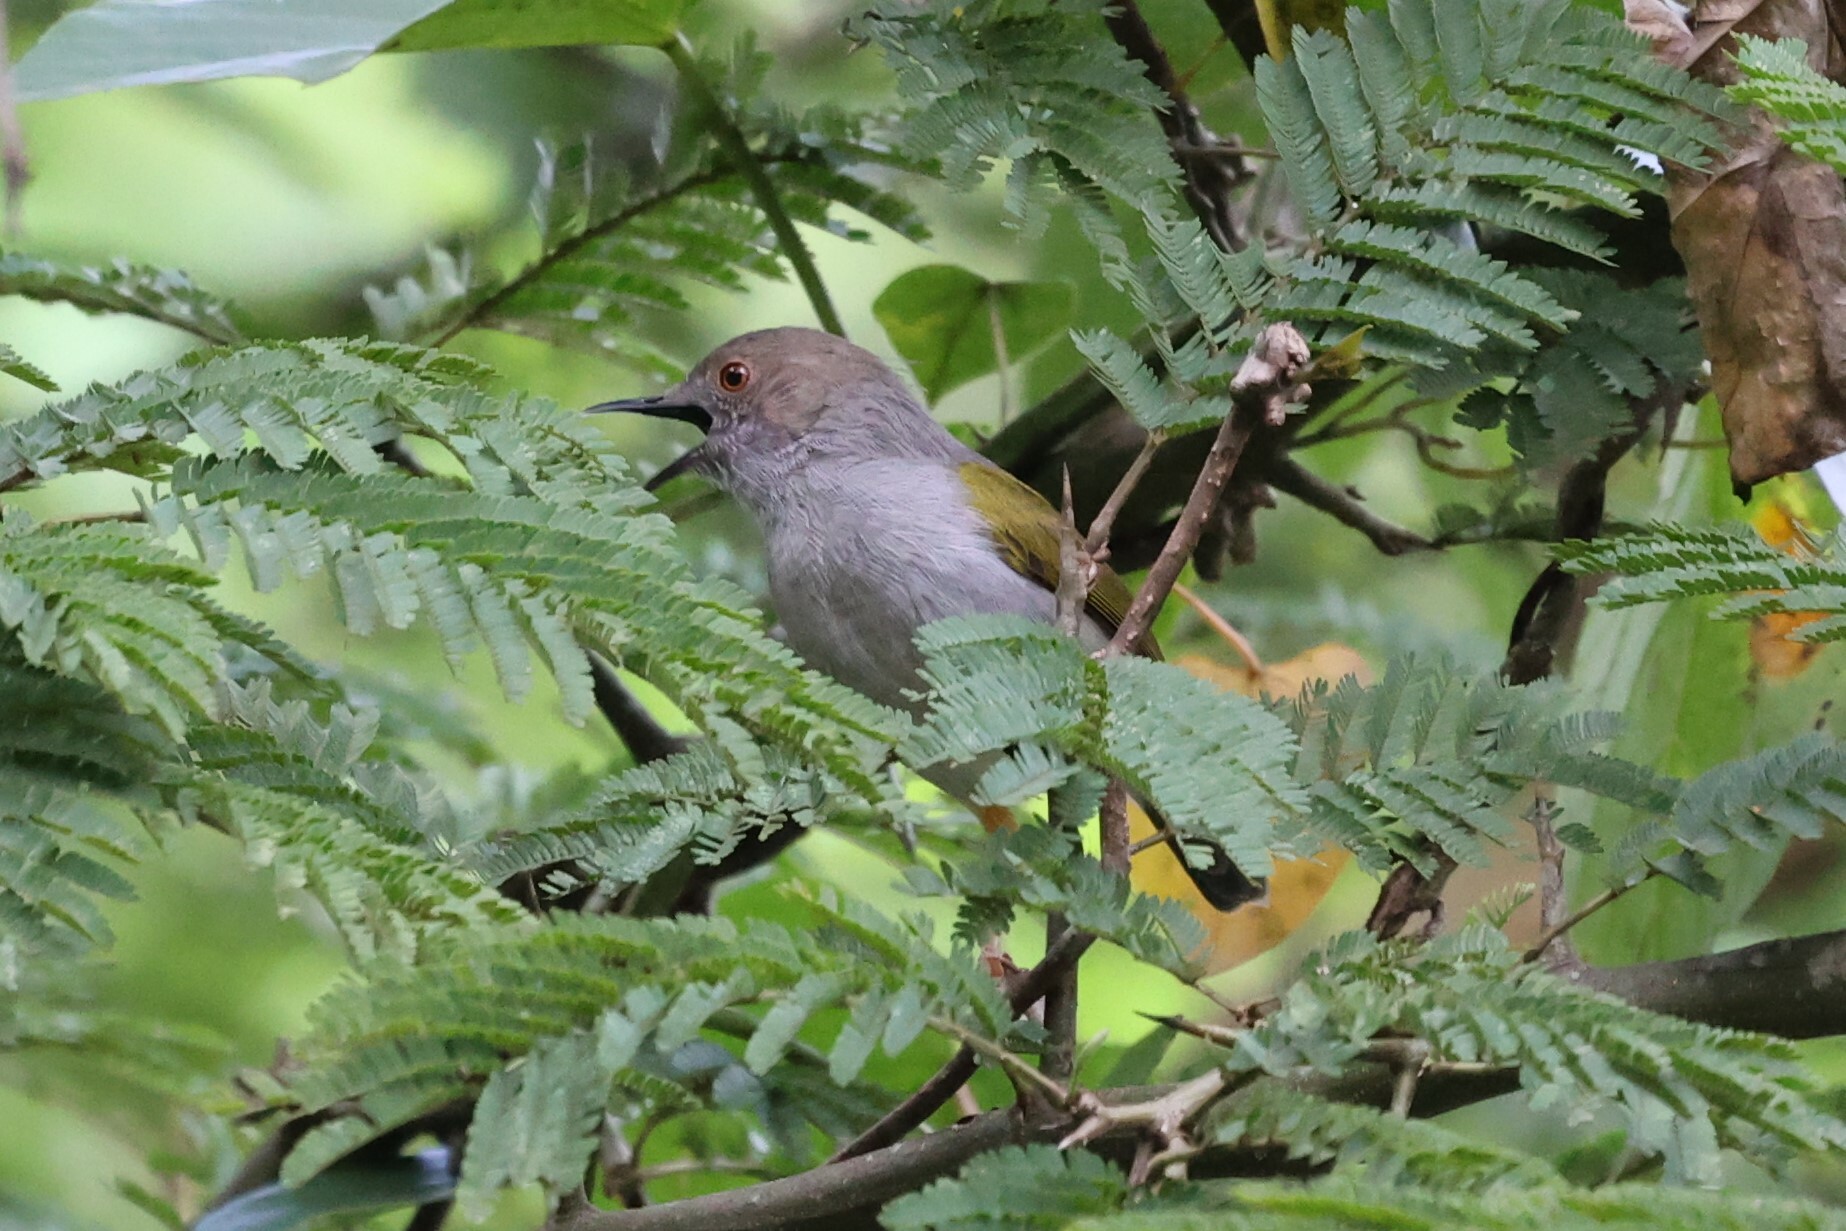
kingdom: Animalia
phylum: Chordata
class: Aves
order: Passeriformes
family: Cisticolidae
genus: Camaroptera
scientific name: Camaroptera brachyura
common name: Green-backed camaroptera
